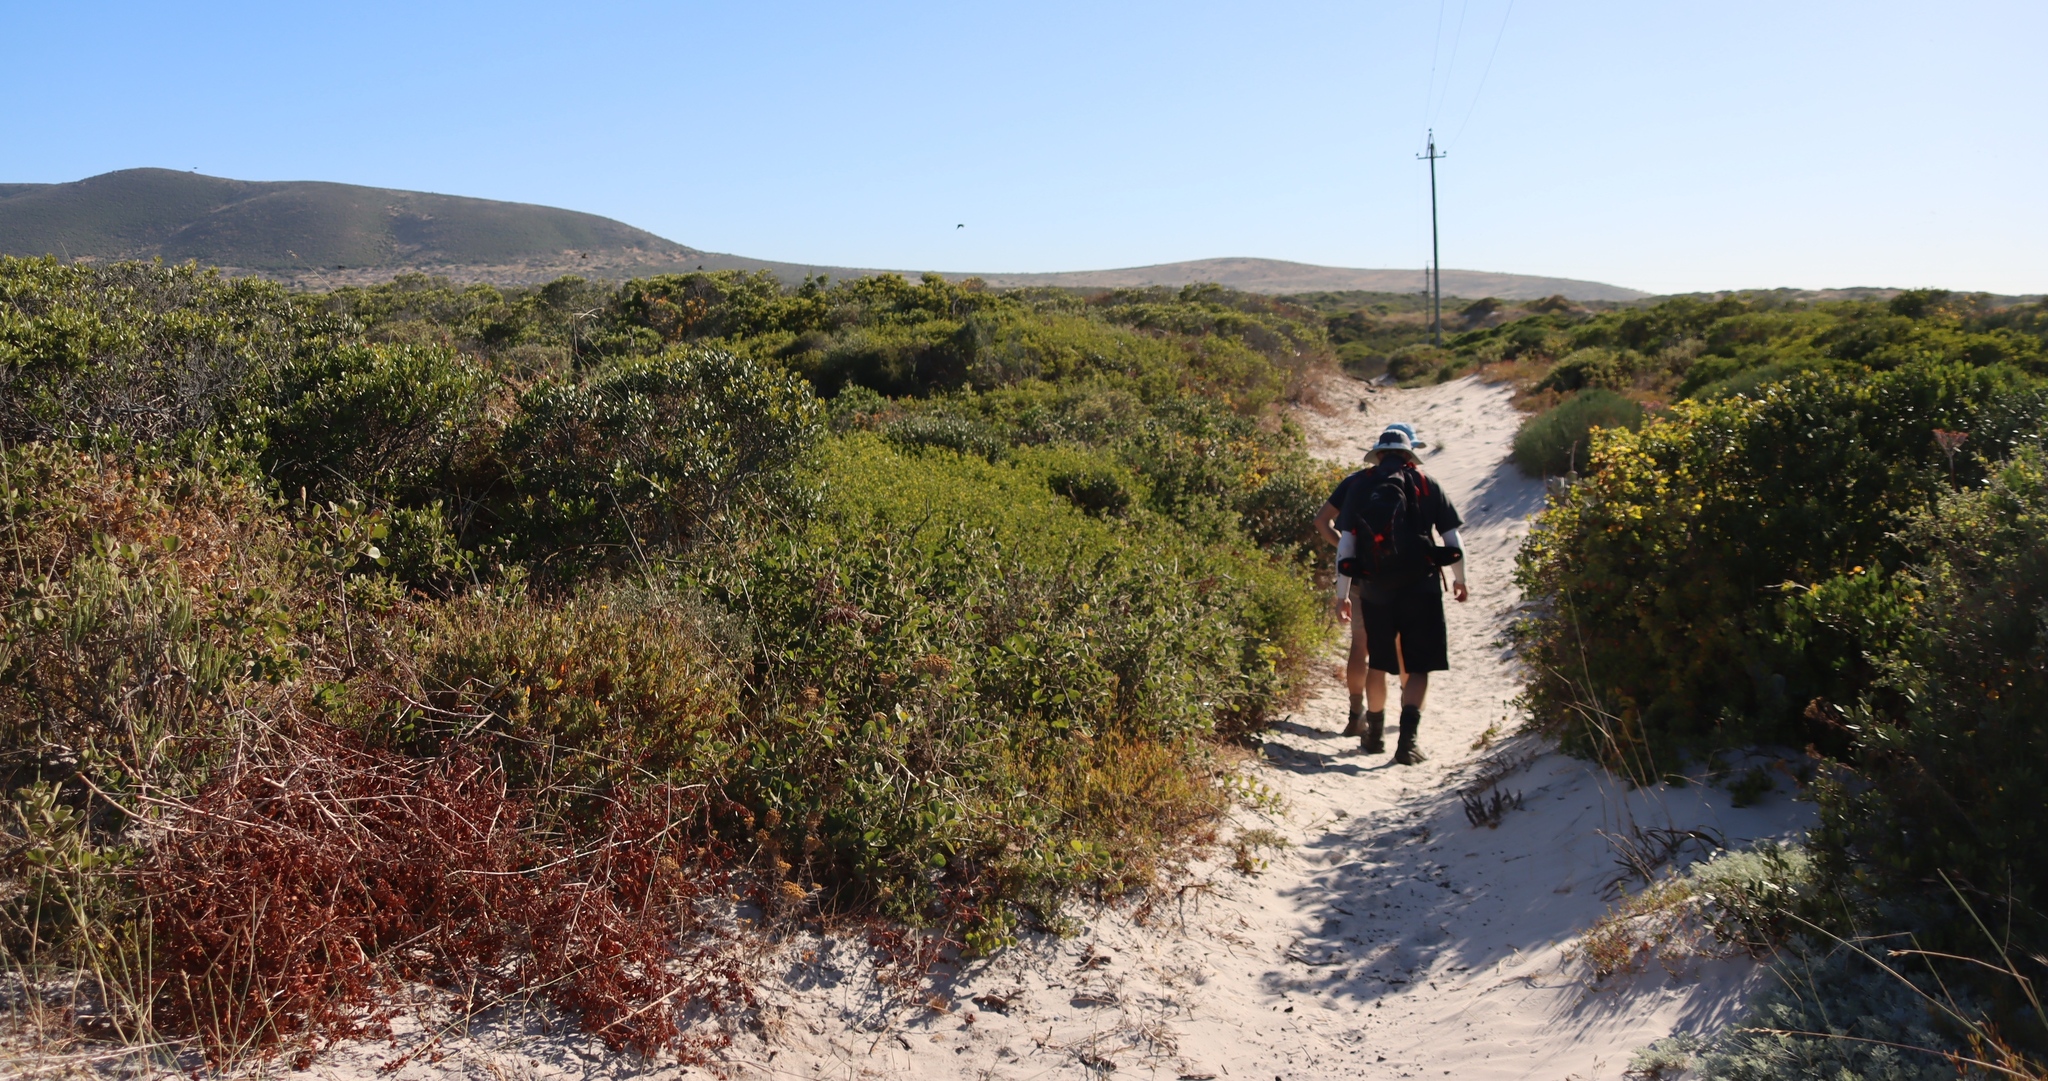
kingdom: Plantae
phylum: Tracheophyta
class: Magnoliopsida
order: Sapindales
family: Anacardiaceae
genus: Searsia
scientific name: Searsia laevigata
